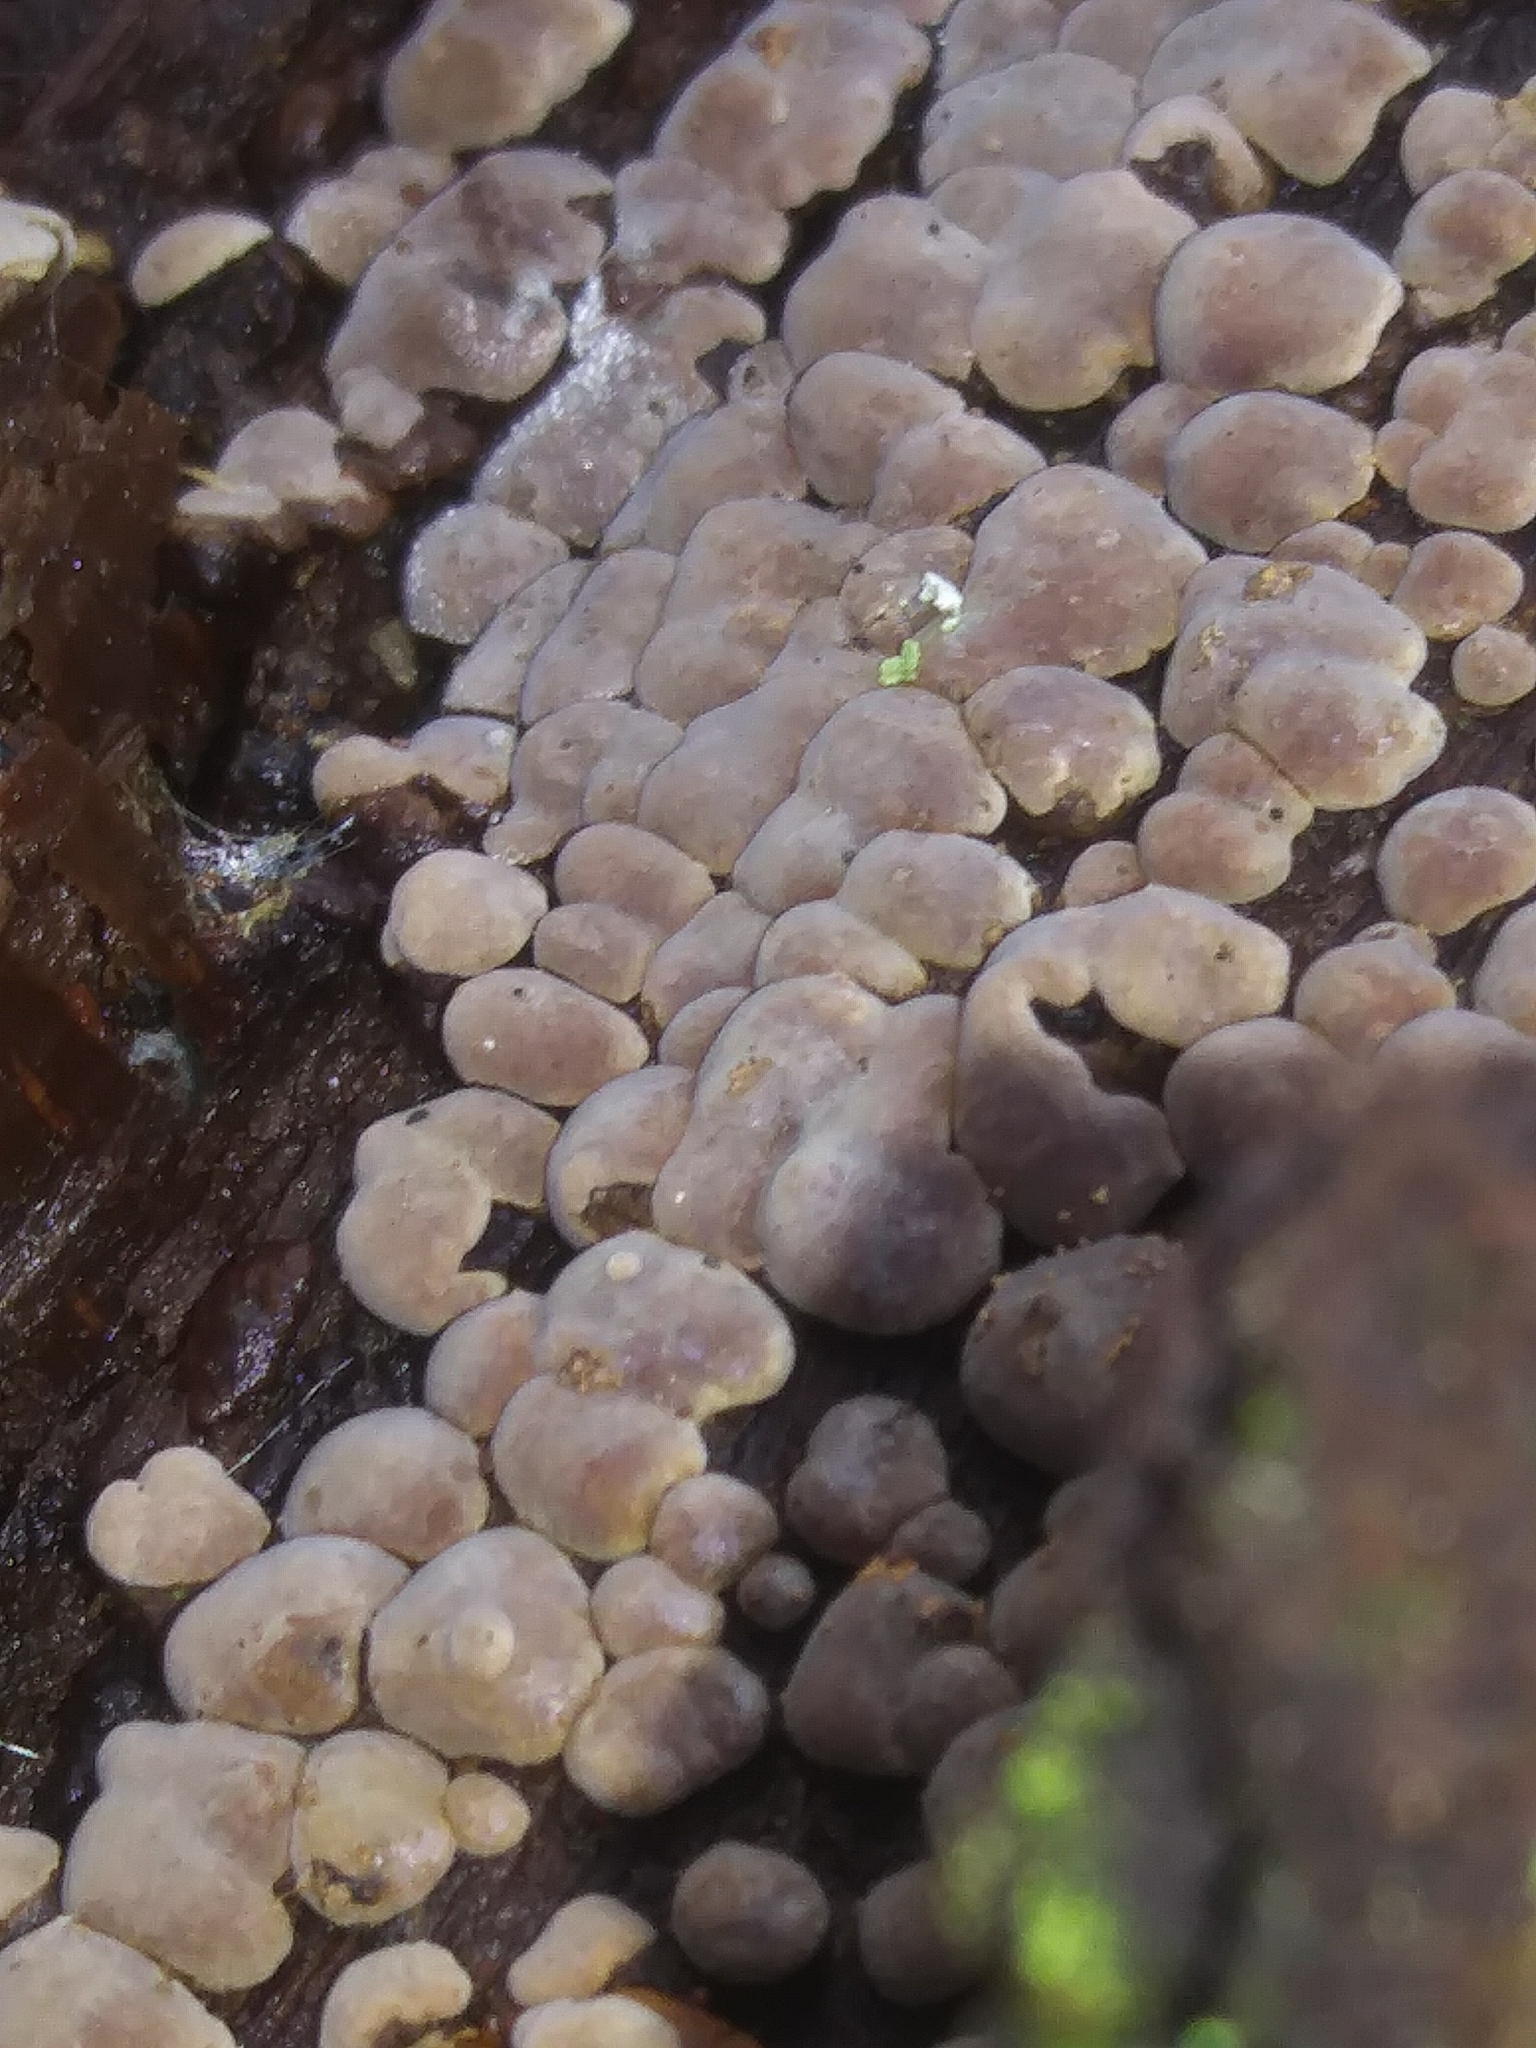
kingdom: Fungi
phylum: Basidiomycota
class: Agaricomycetes
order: Russulales
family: Stereaceae
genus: Xylobolus
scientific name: Xylobolus frustulatus
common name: Ceramic parchment
